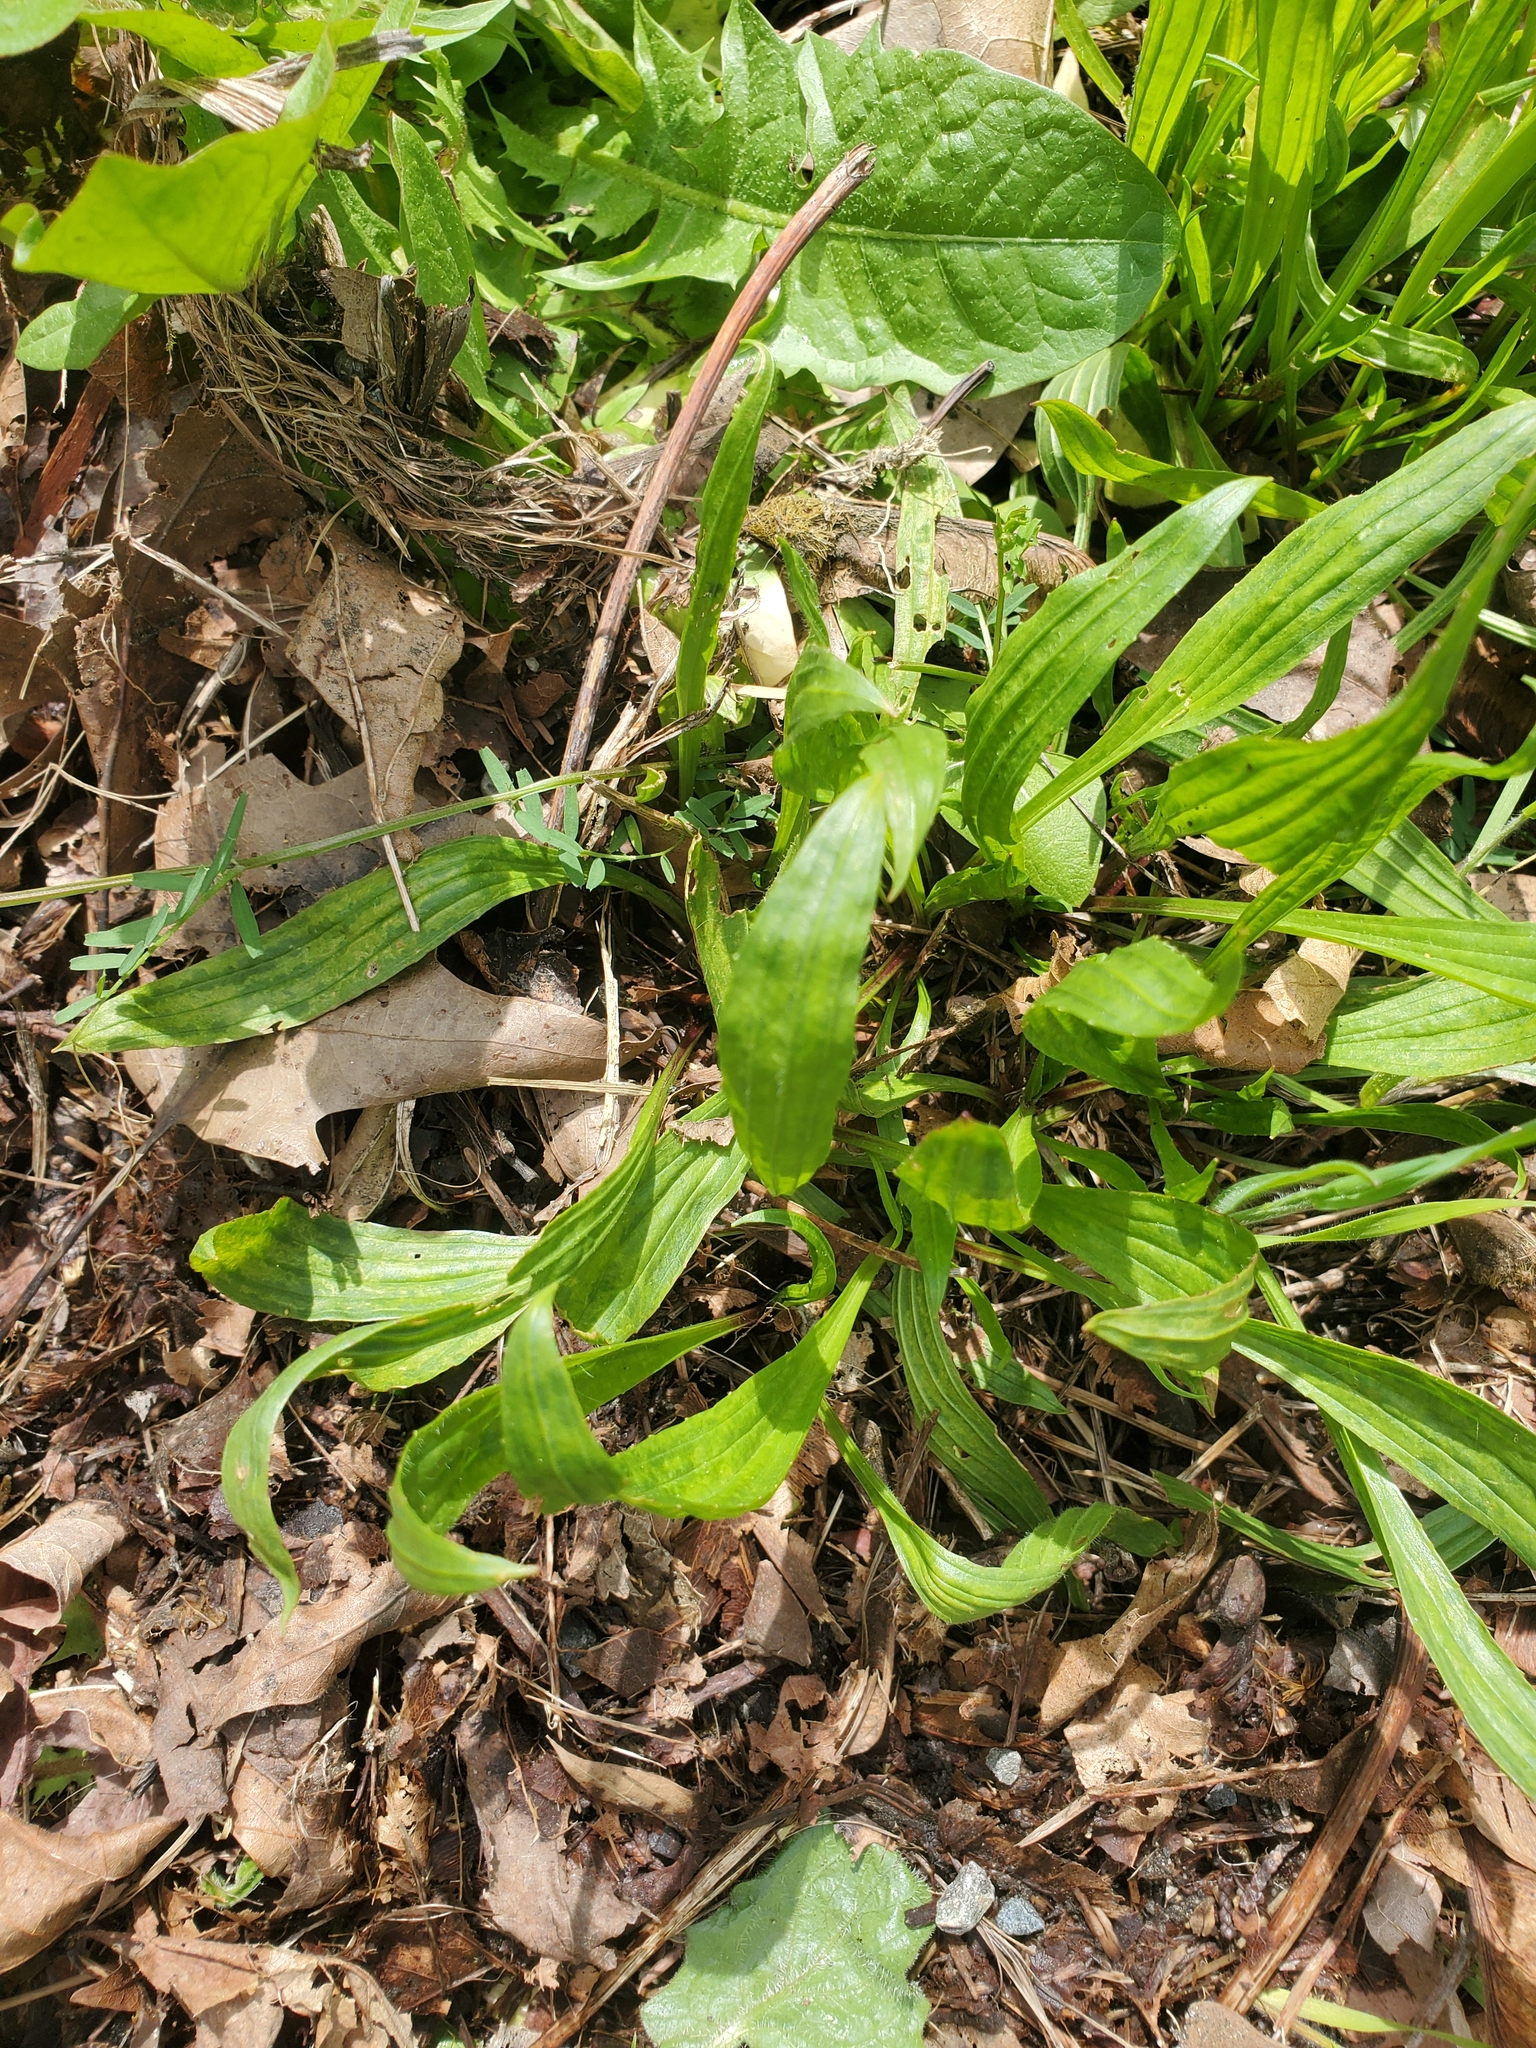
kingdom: Plantae
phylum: Tracheophyta
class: Magnoliopsida
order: Lamiales
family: Plantaginaceae
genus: Plantago
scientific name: Plantago lanceolata
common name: Ribwort plantain
